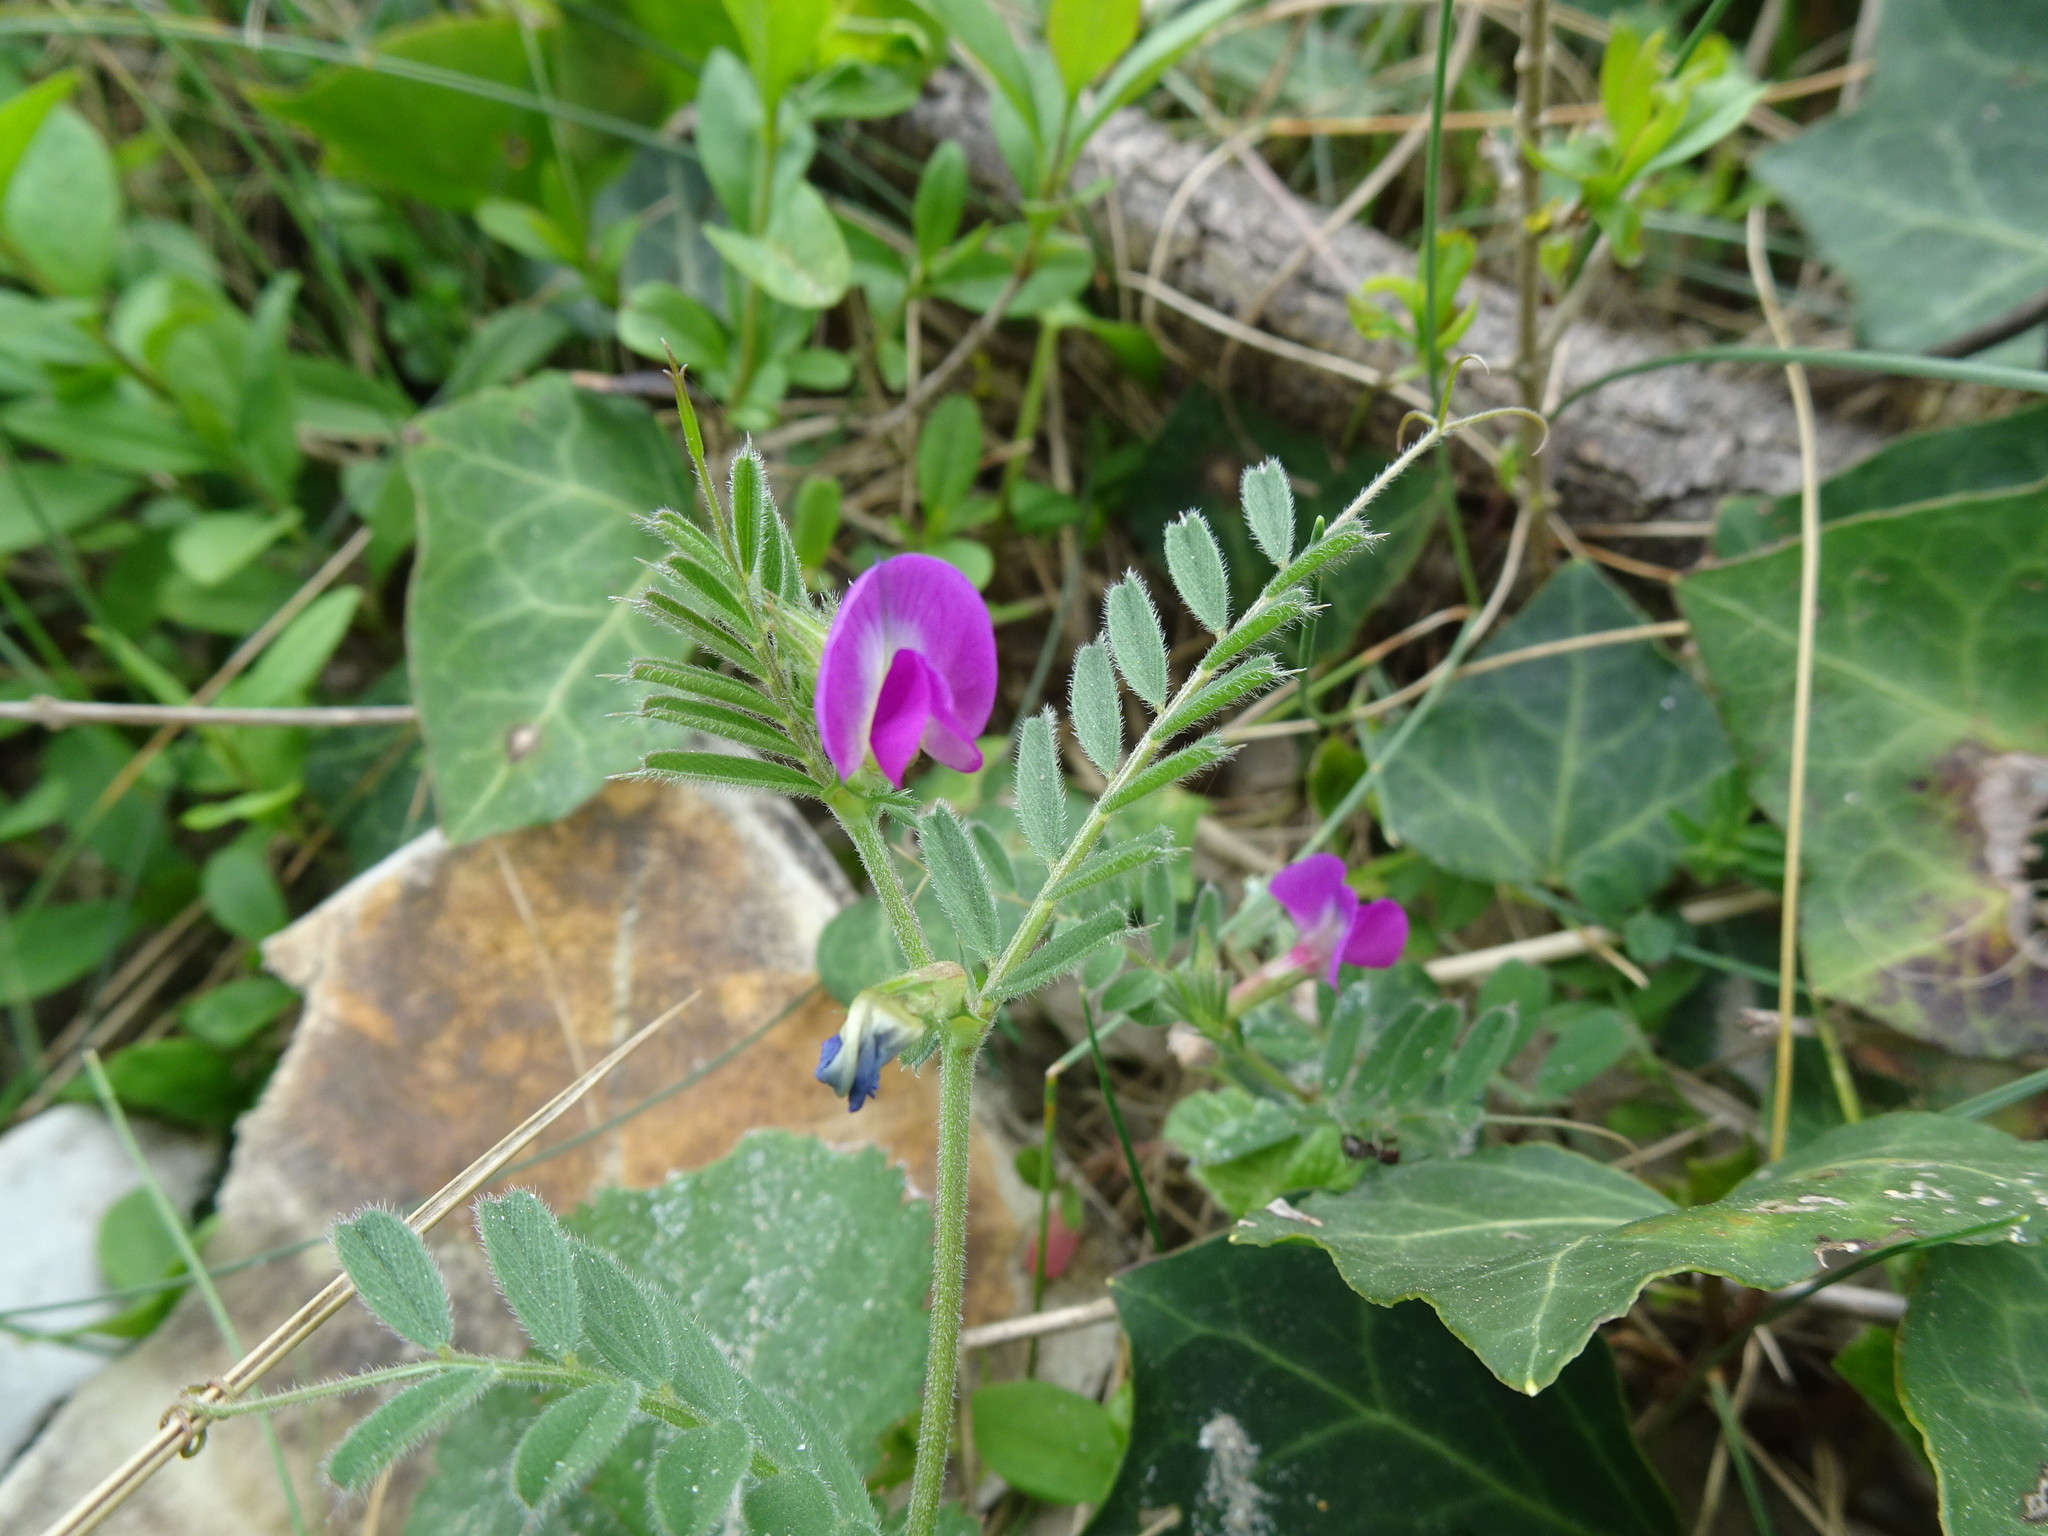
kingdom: Plantae
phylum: Tracheophyta
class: Magnoliopsida
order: Fabales
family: Fabaceae
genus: Vicia
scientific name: Vicia sativa
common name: Garden vetch
